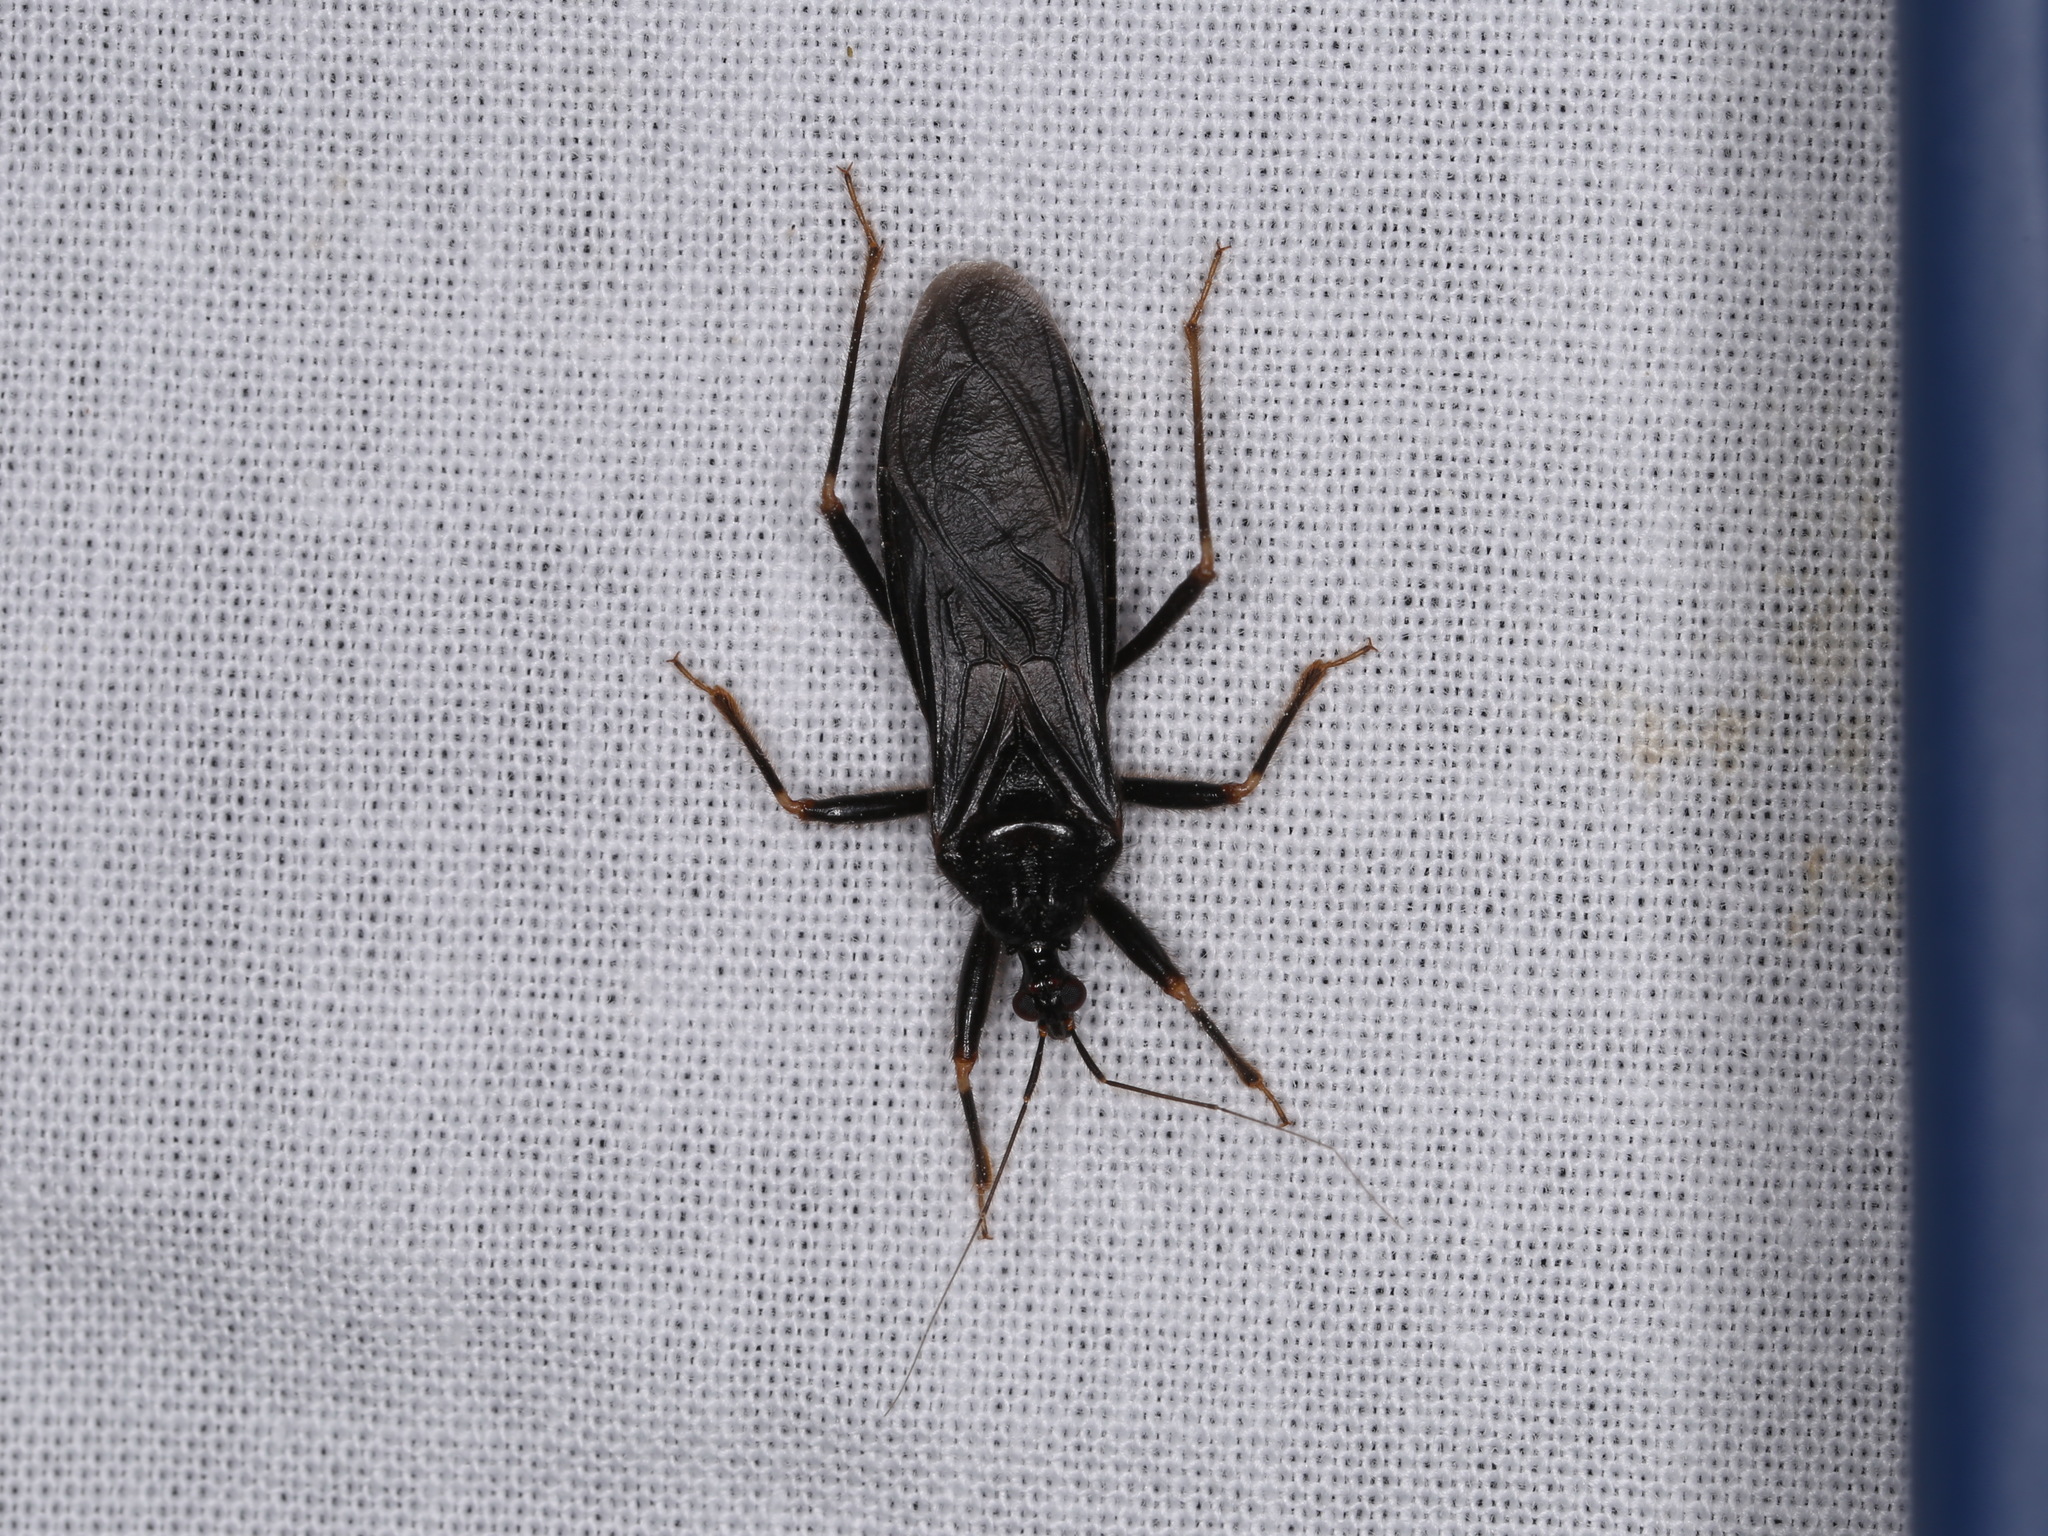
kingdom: Animalia
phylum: Arthropoda
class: Insecta
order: Hemiptera
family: Reduviidae
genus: Reduvius
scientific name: Reduvius personatus
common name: Masked hunter
